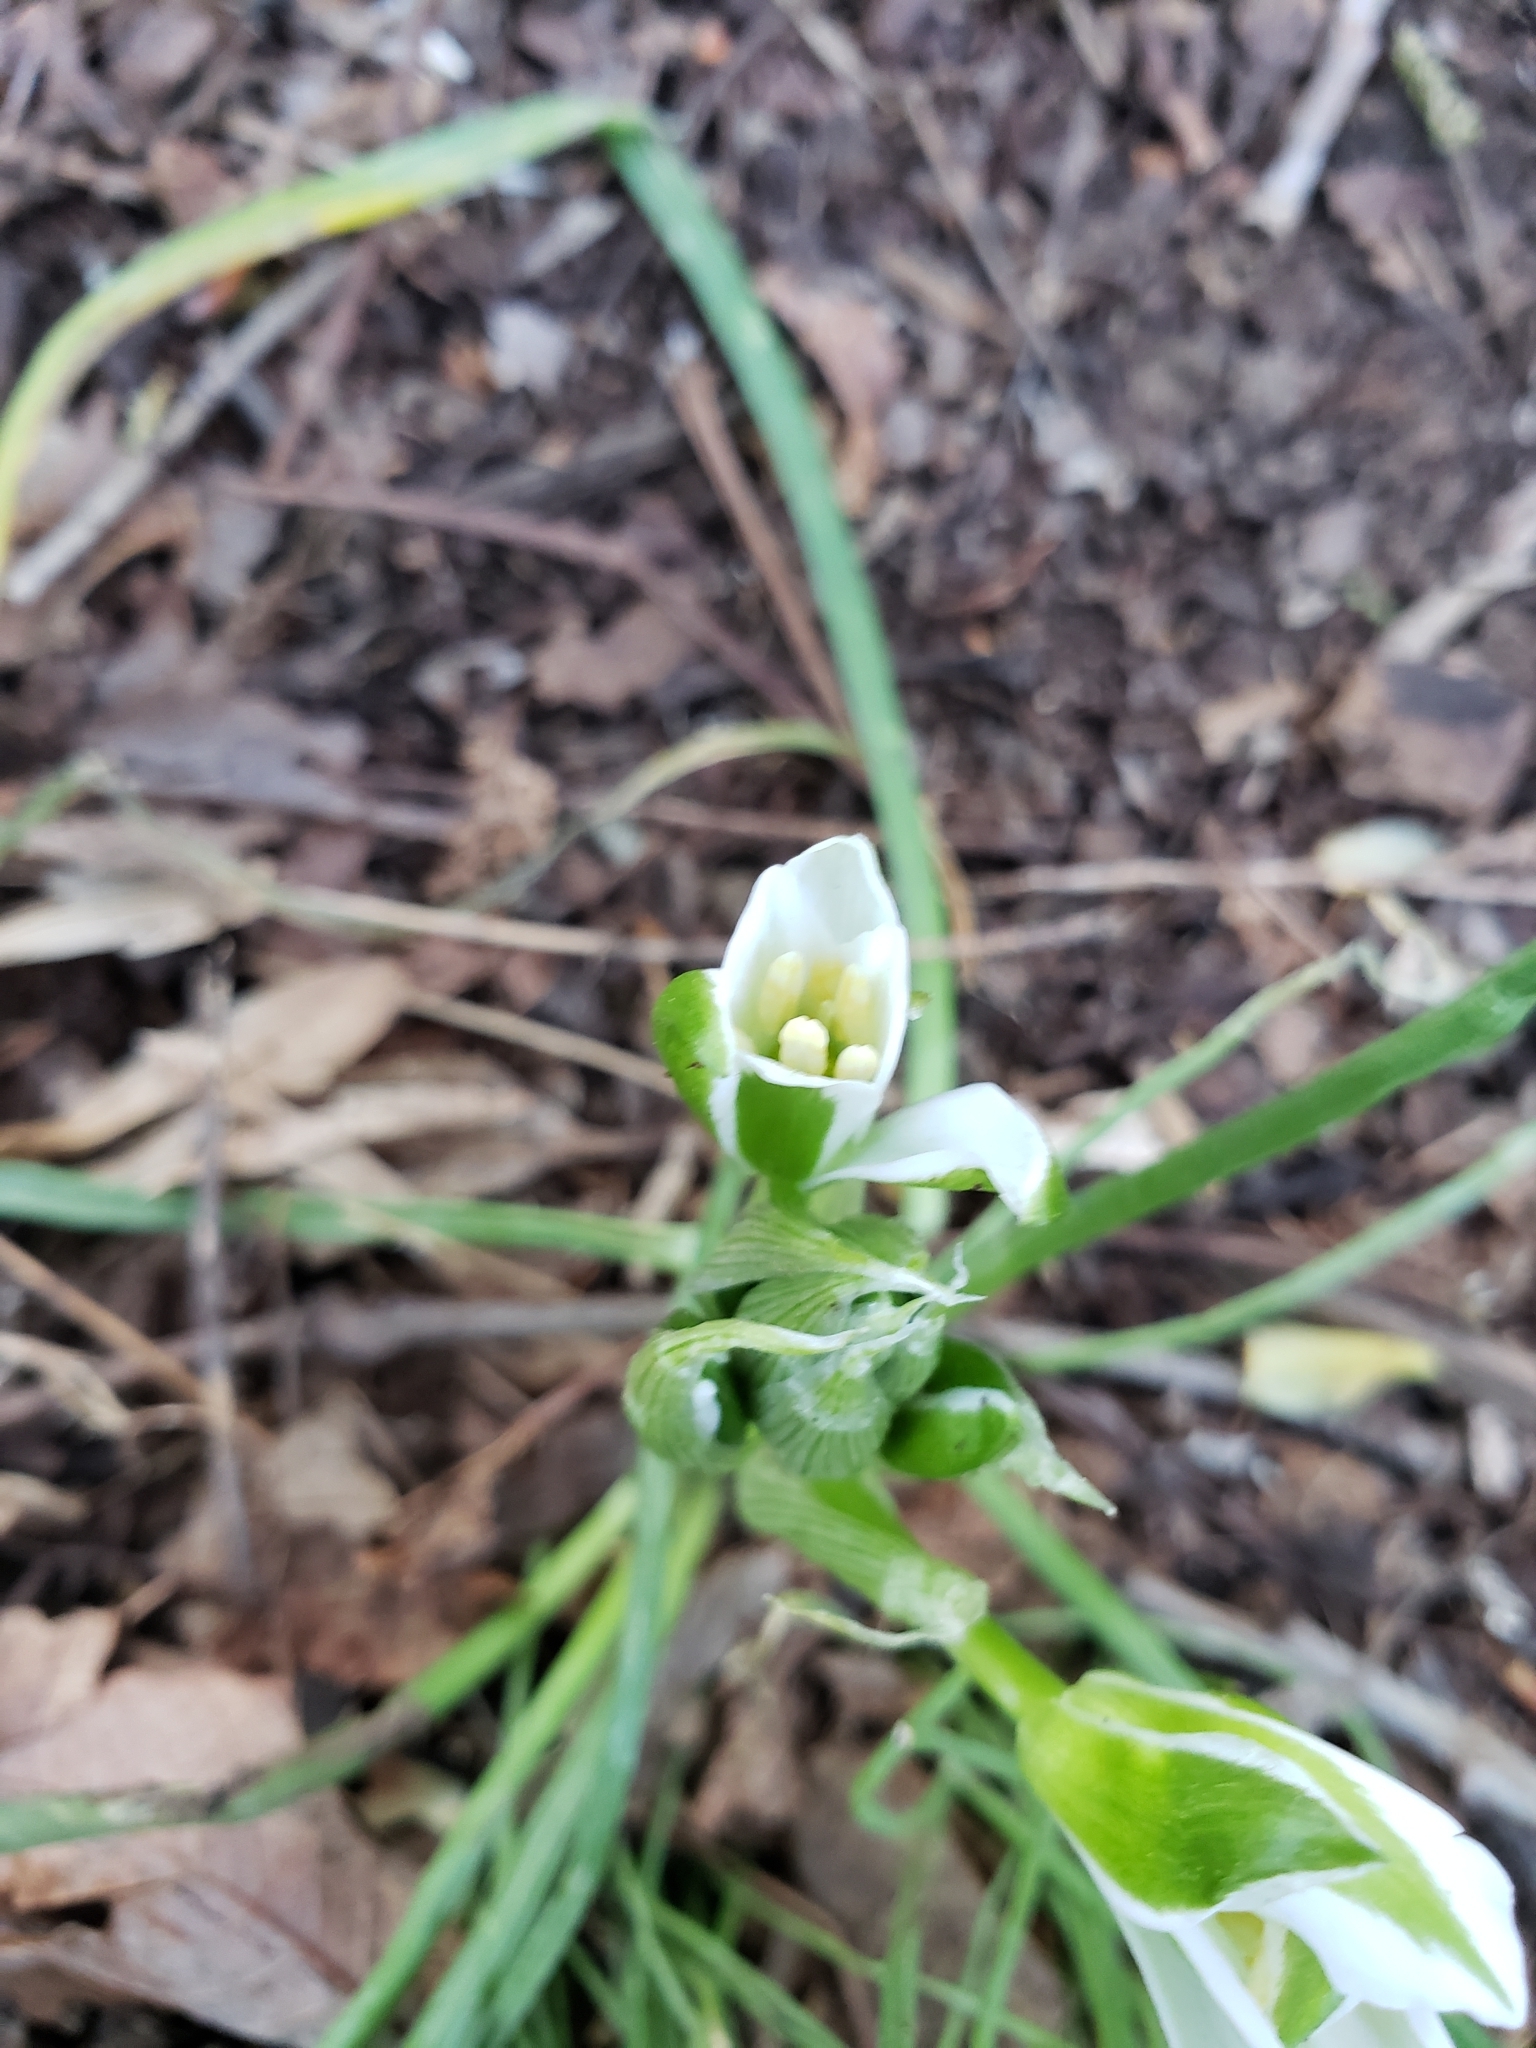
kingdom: Plantae
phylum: Tracheophyta
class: Liliopsida
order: Asparagales
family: Asparagaceae
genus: Ornithogalum
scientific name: Ornithogalum umbellatum
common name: Garden star-of-bethlehem
